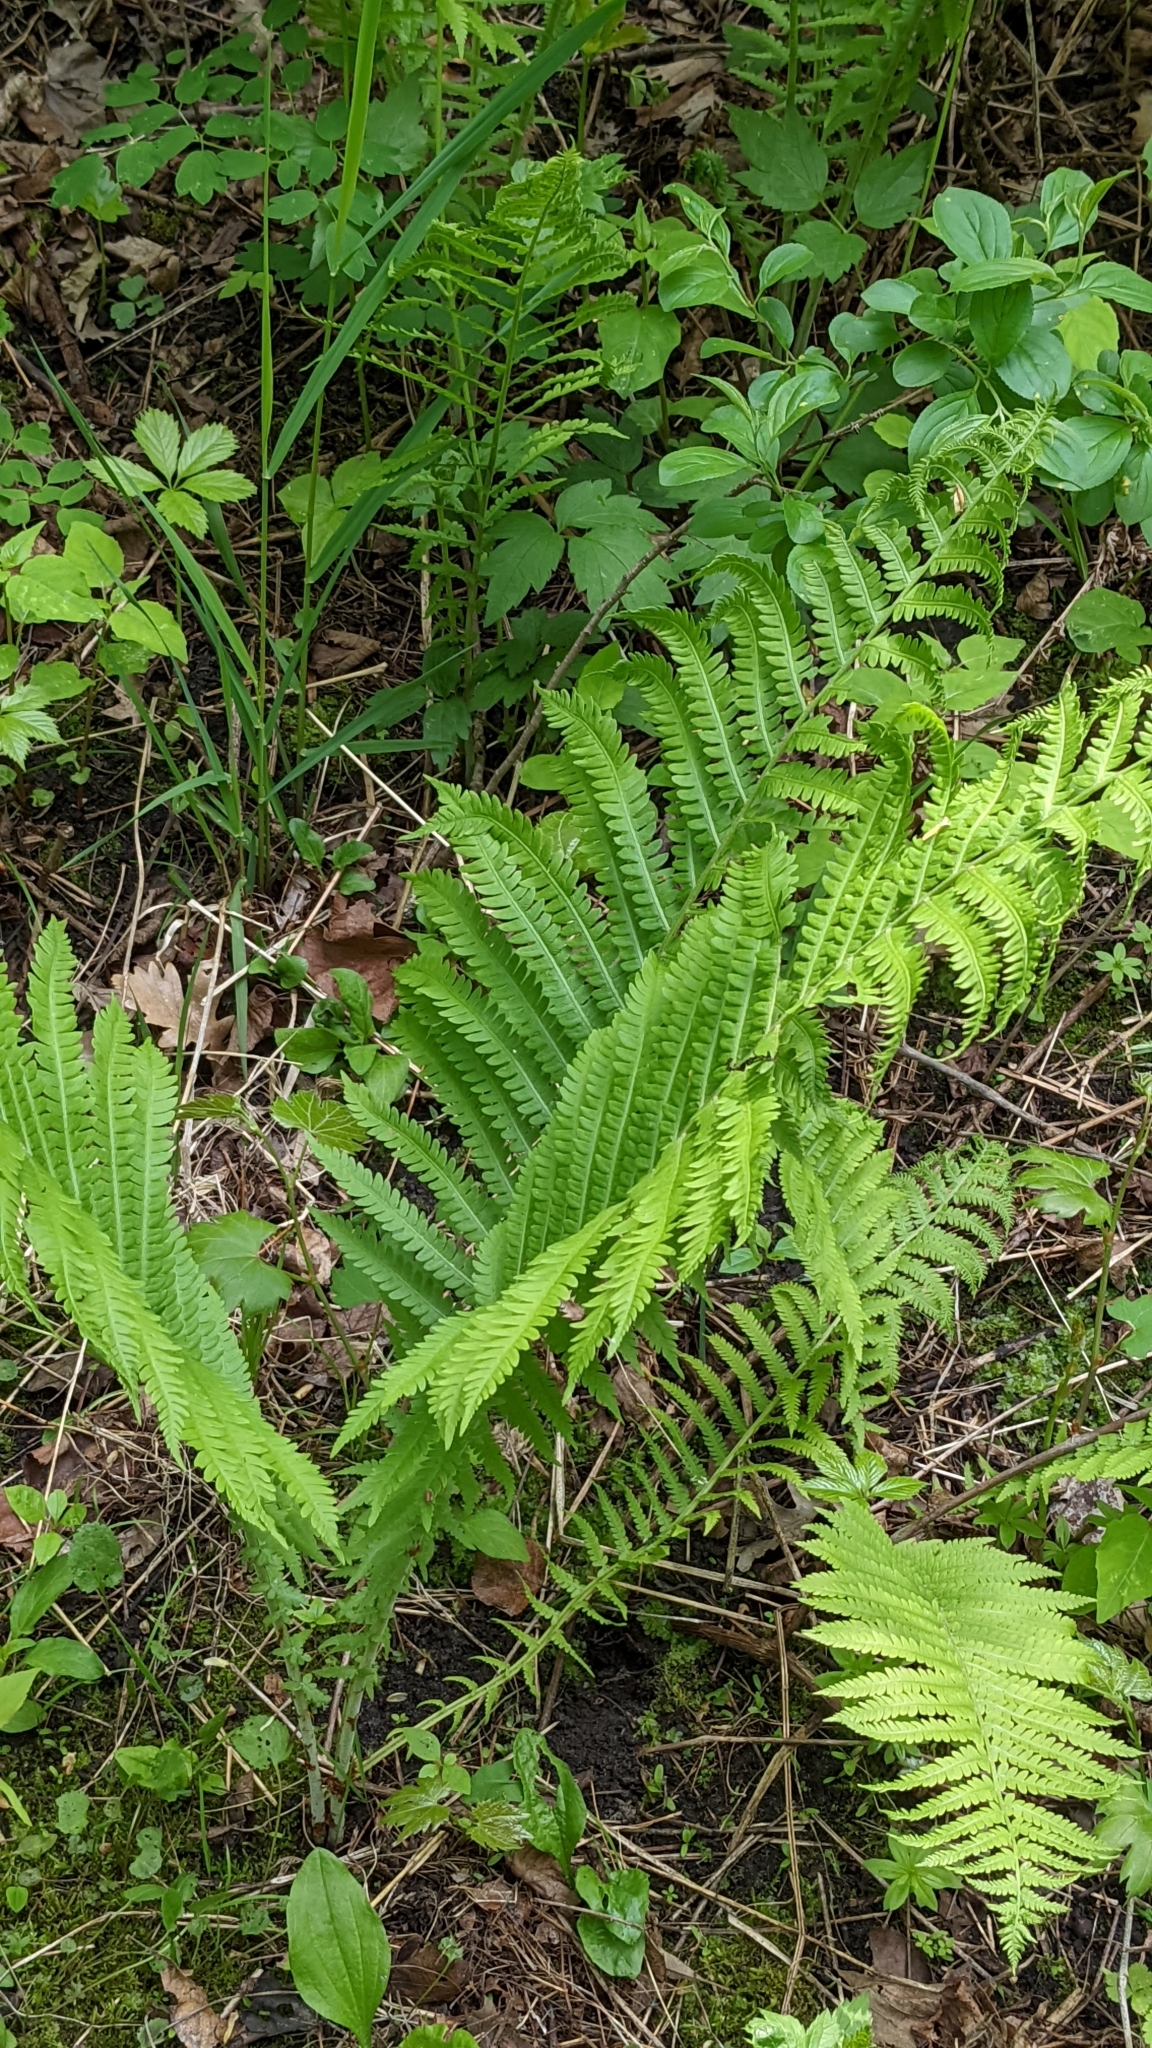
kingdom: Plantae
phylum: Tracheophyta
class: Polypodiopsida
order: Polypodiales
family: Onocleaceae
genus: Matteuccia
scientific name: Matteuccia struthiopteris
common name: Ostrich fern
